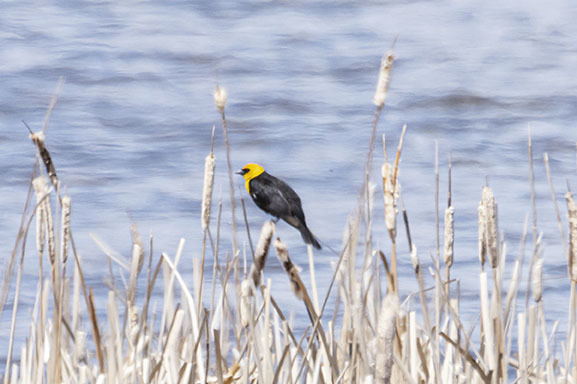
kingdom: Animalia
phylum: Chordata
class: Aves
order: Passeriformes
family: Icteridae
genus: Xanthocephalus
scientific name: Xanthocephalus xanthocephalus
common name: Yellow-headed blackbird
